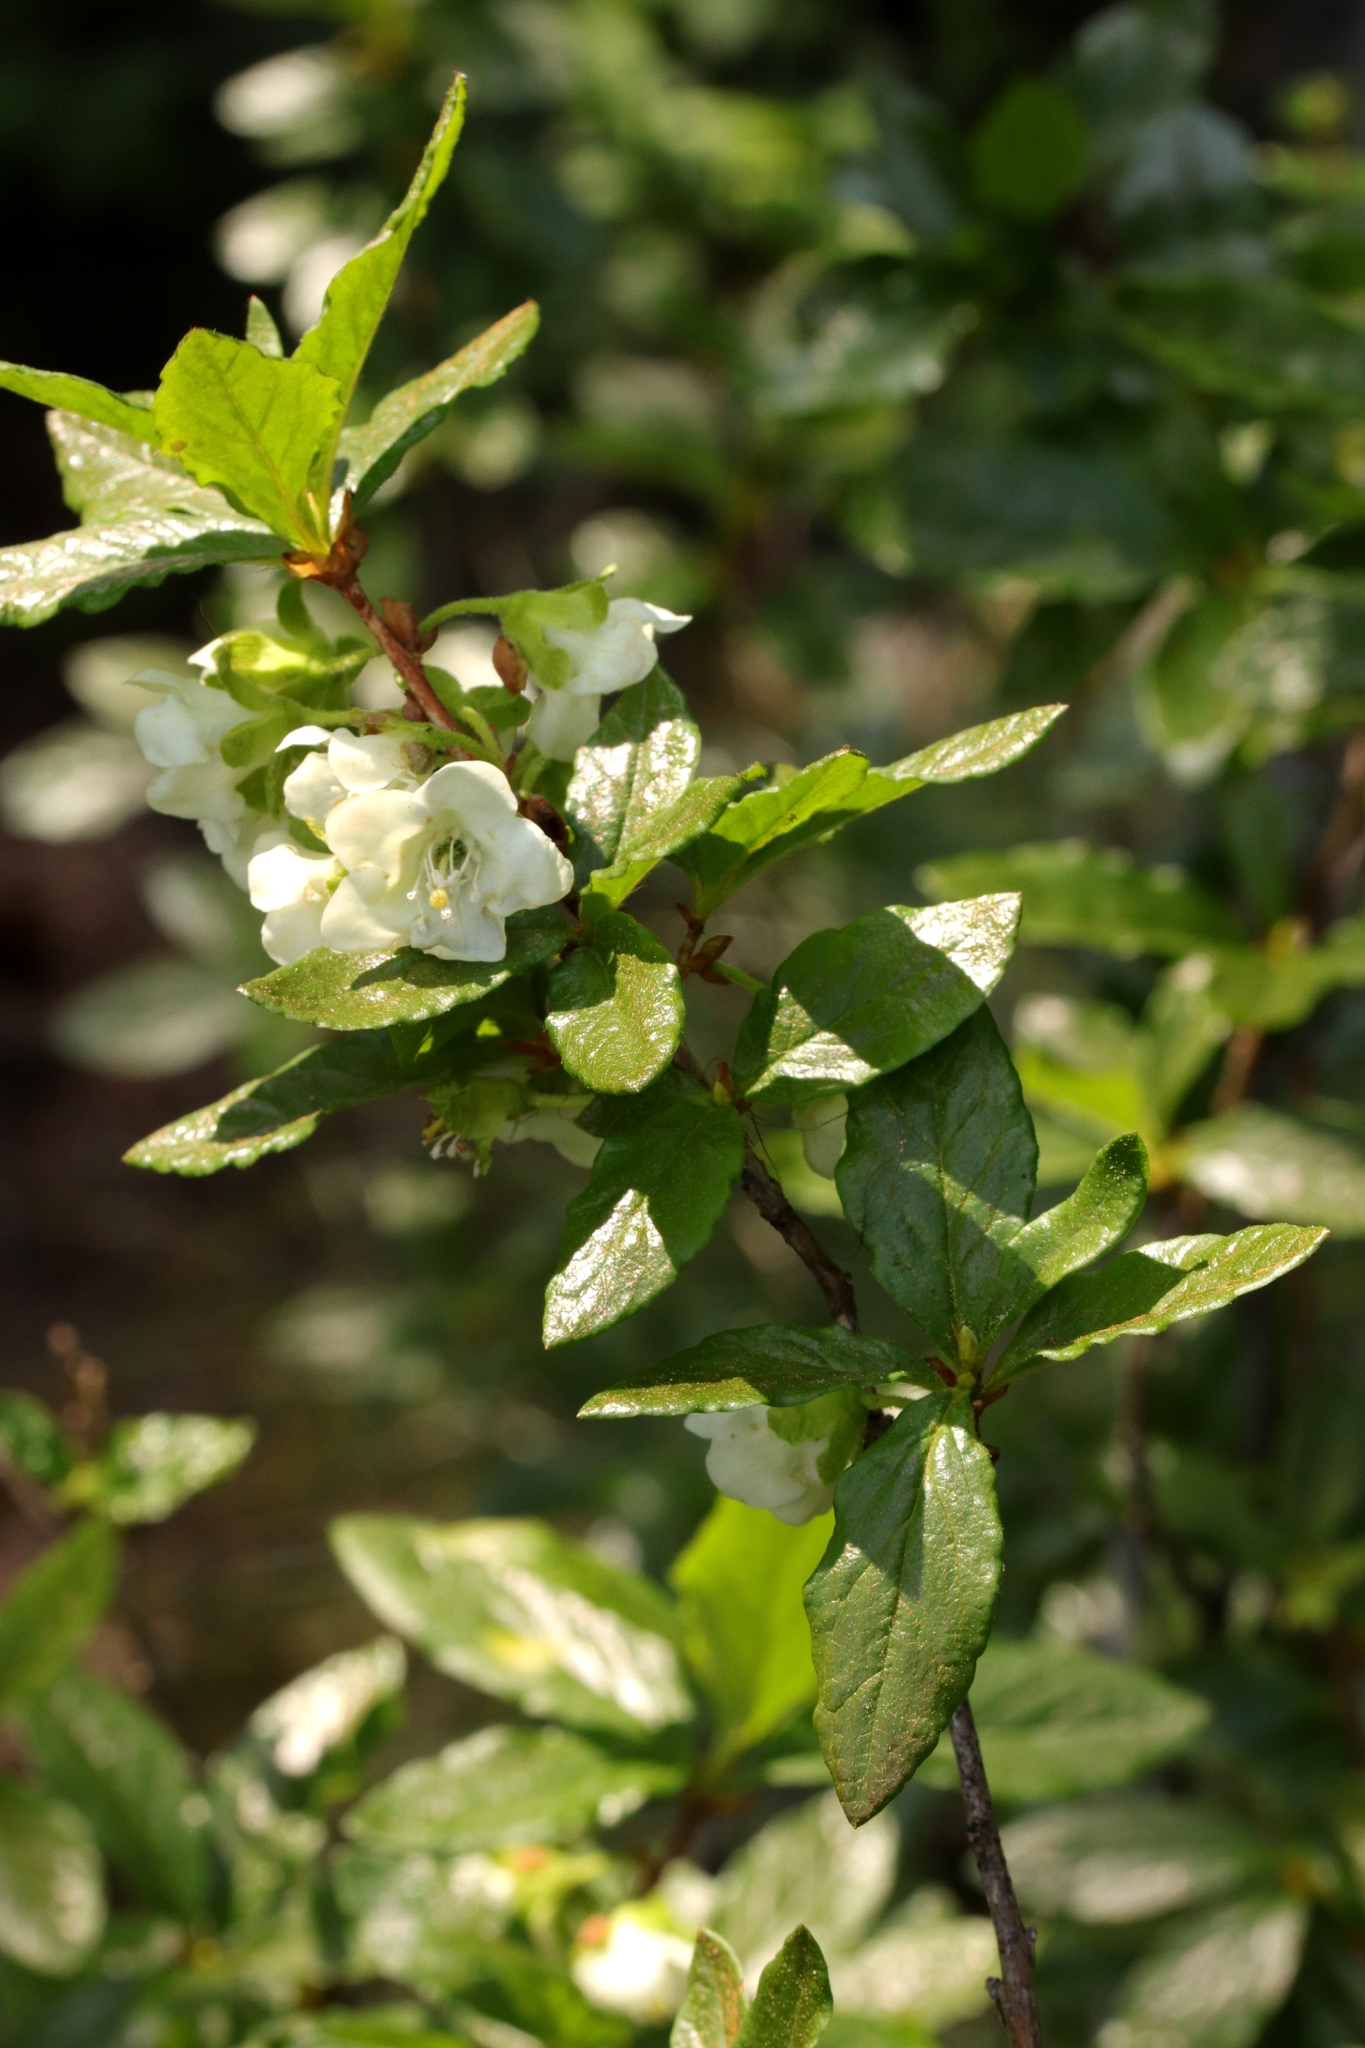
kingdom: Plantae
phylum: Tracheophyta
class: Magnoliopsida
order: Ericales
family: Ericaceae
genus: Rhododendron
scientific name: Rhododendron albiflorum
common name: White rhododendron
